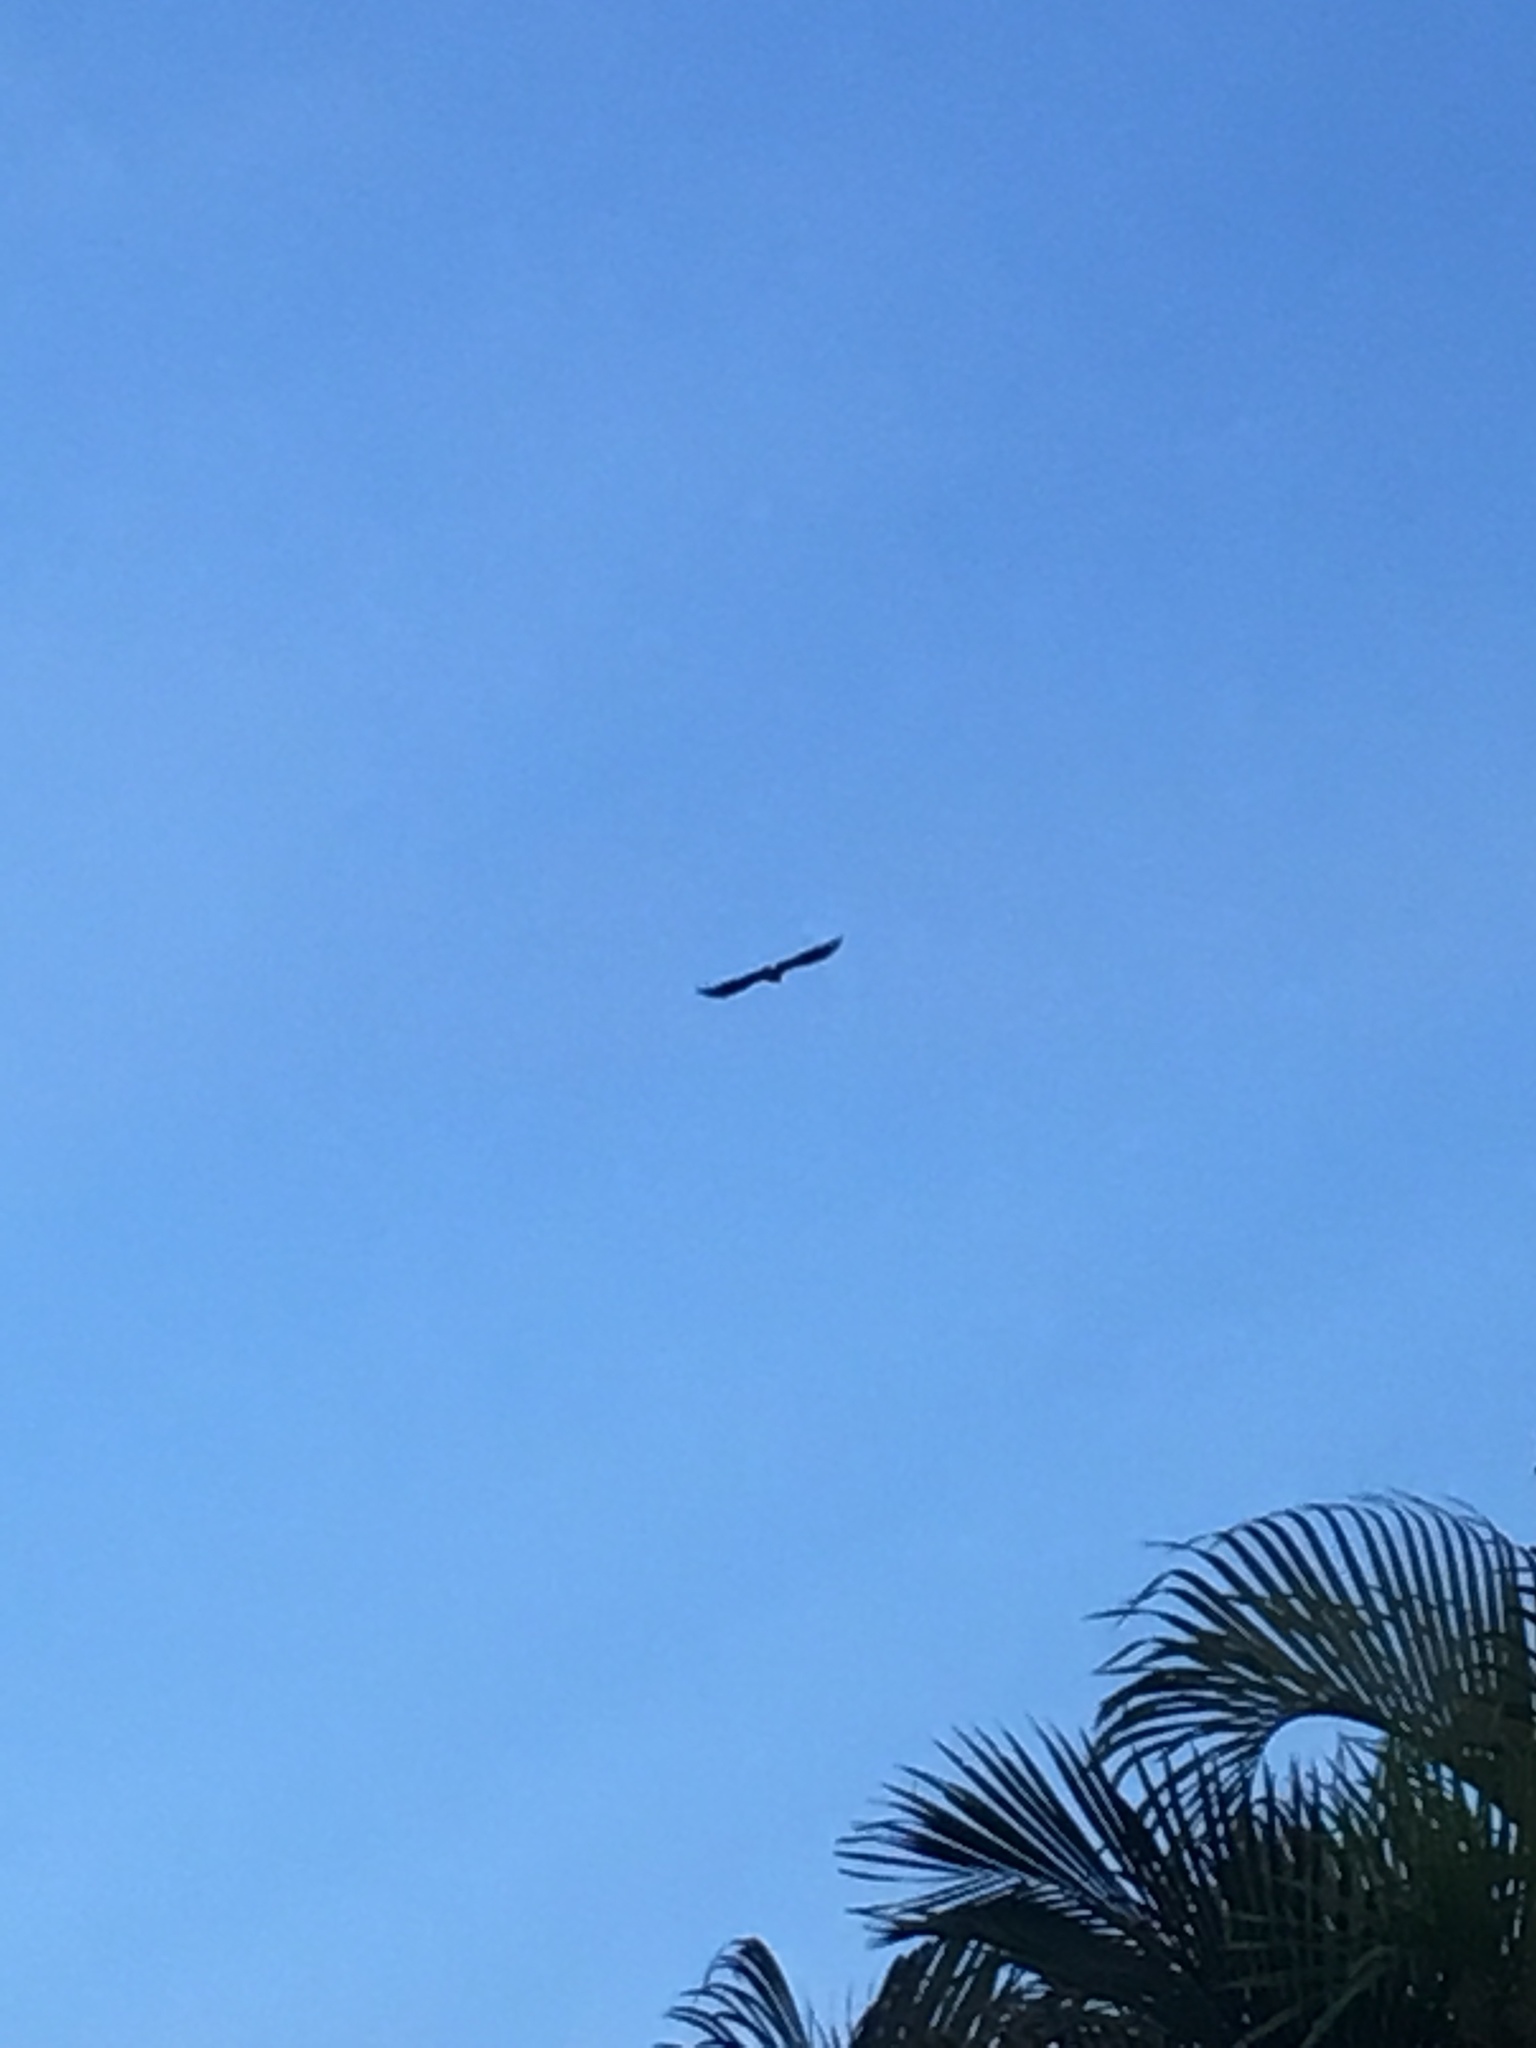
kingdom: Animalia
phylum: Chordata
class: Aves
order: Accipitriformes
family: Accipitridae
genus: Haliaeetus
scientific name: Haliaeetus leucocephalus
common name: Bald eagle
